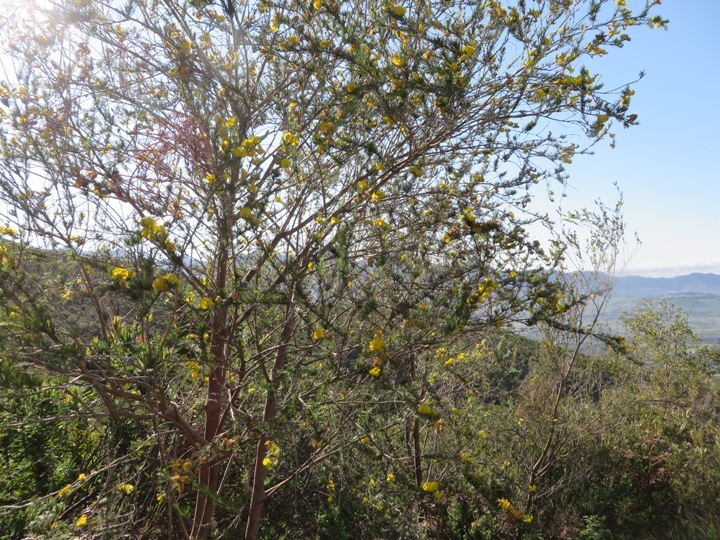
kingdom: Plantae
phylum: Tracheophyta
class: Magnoliopsida
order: Fabales
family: Fabaceae
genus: Aspalathus
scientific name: Aspalathus willdenowiana
